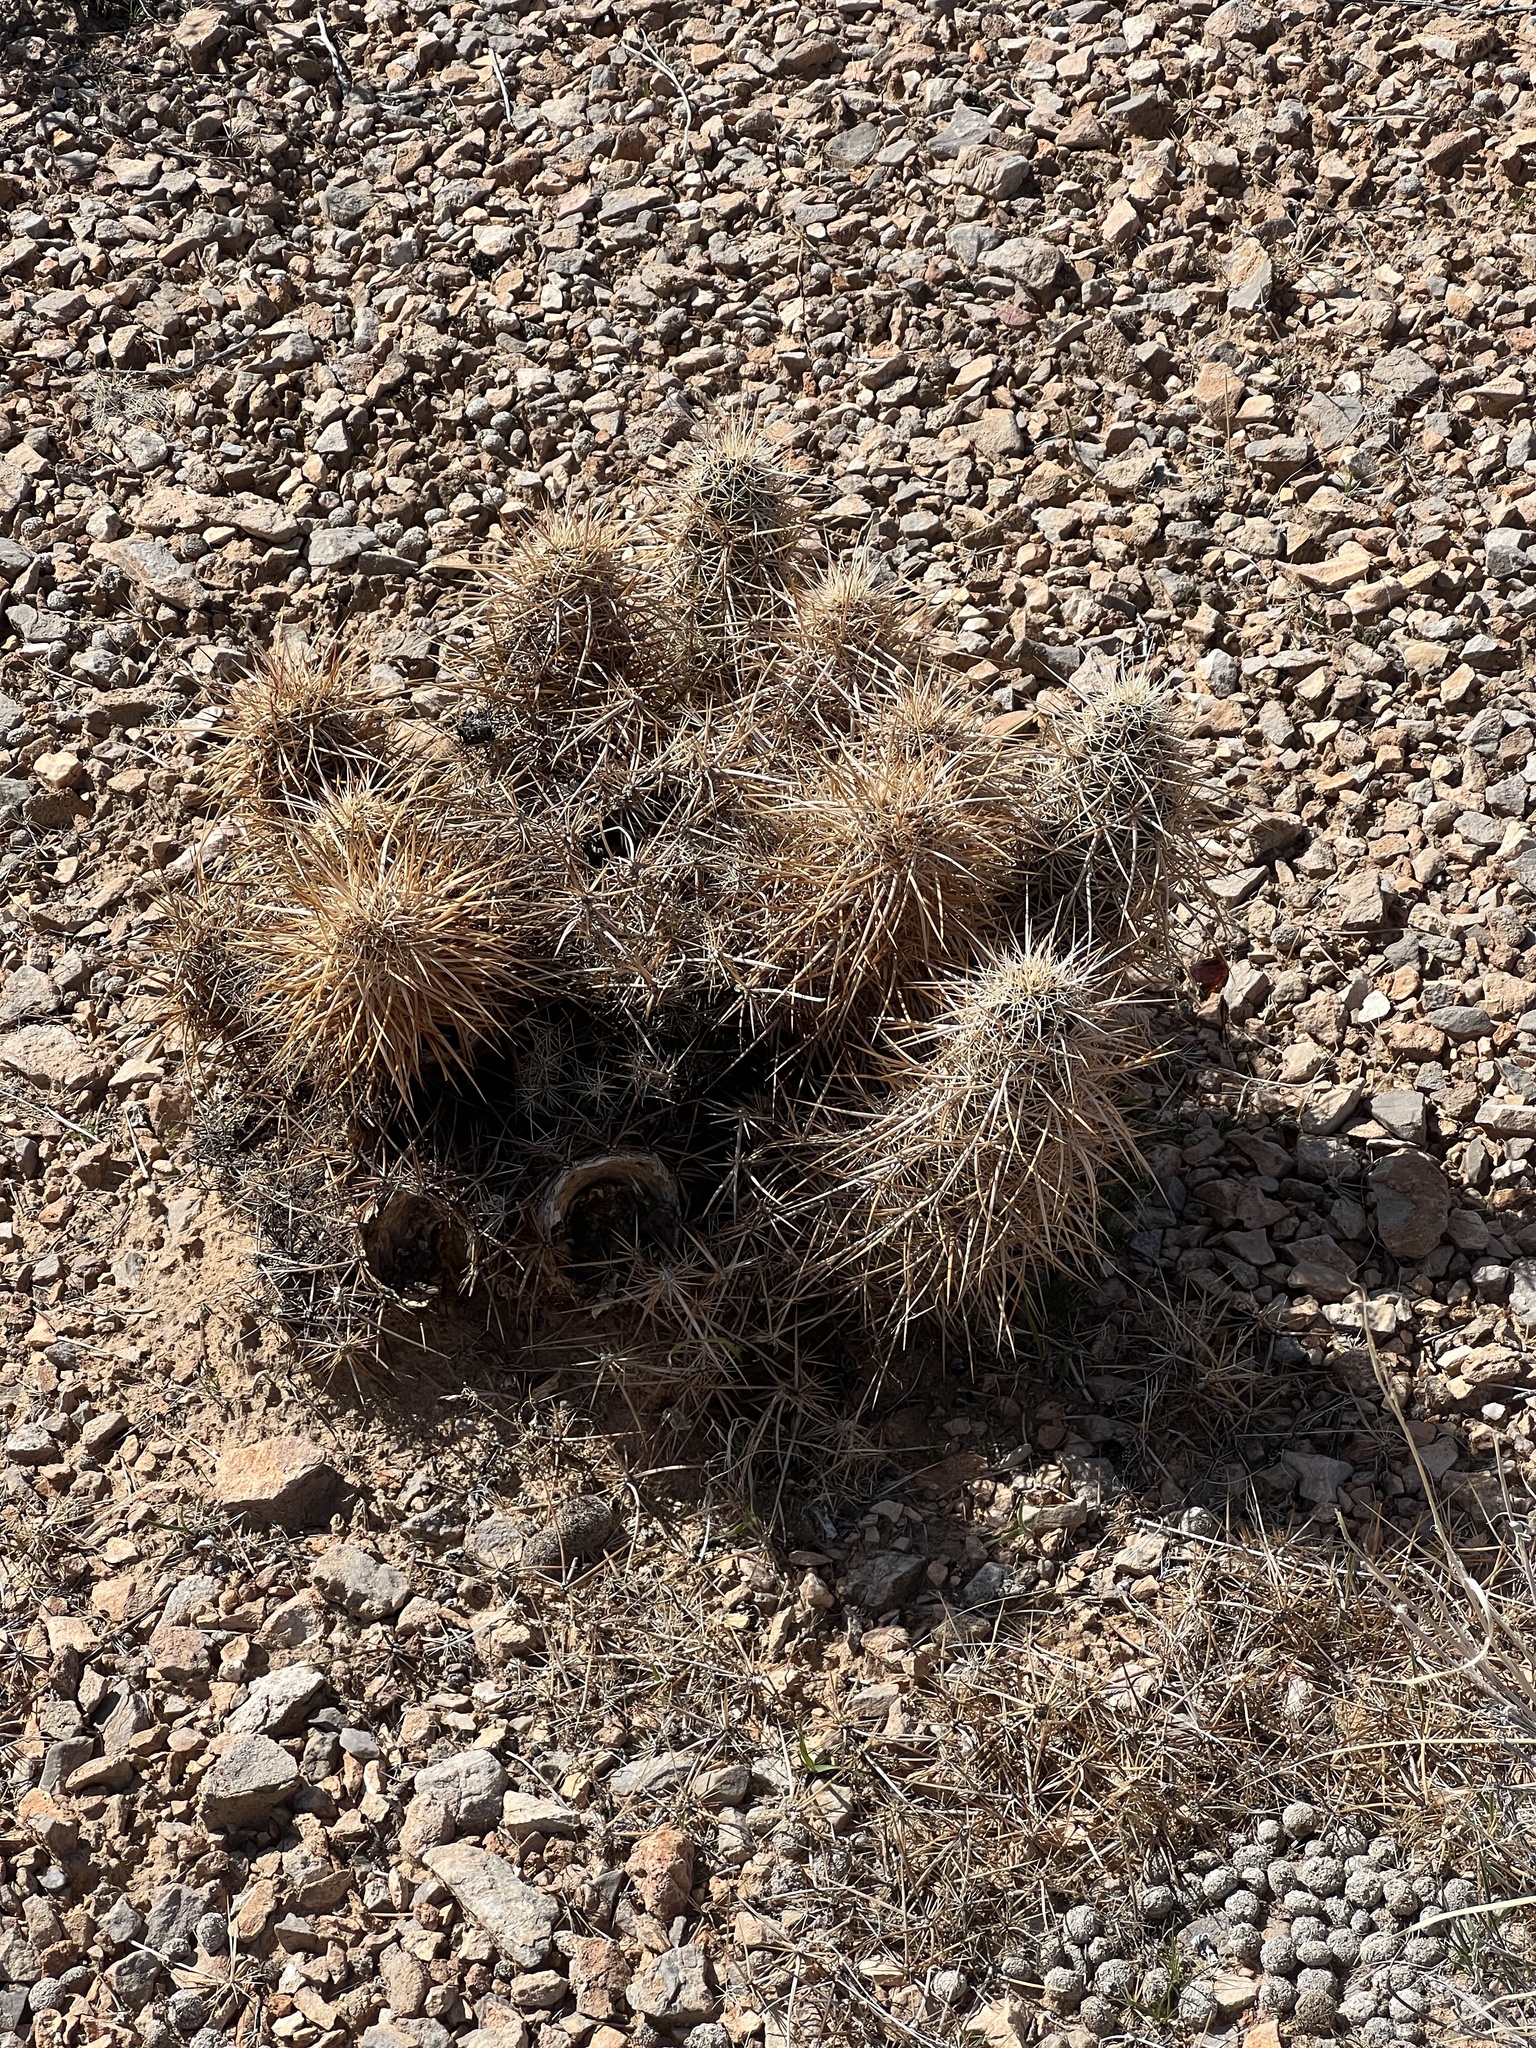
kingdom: Plantae
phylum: Tracheophyta
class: Magnoliopsida
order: Caryophyllales
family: Cactaceae
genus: Echinocereus
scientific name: Echinocereus engelmannii
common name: Engelmann's hedgehog cactus
